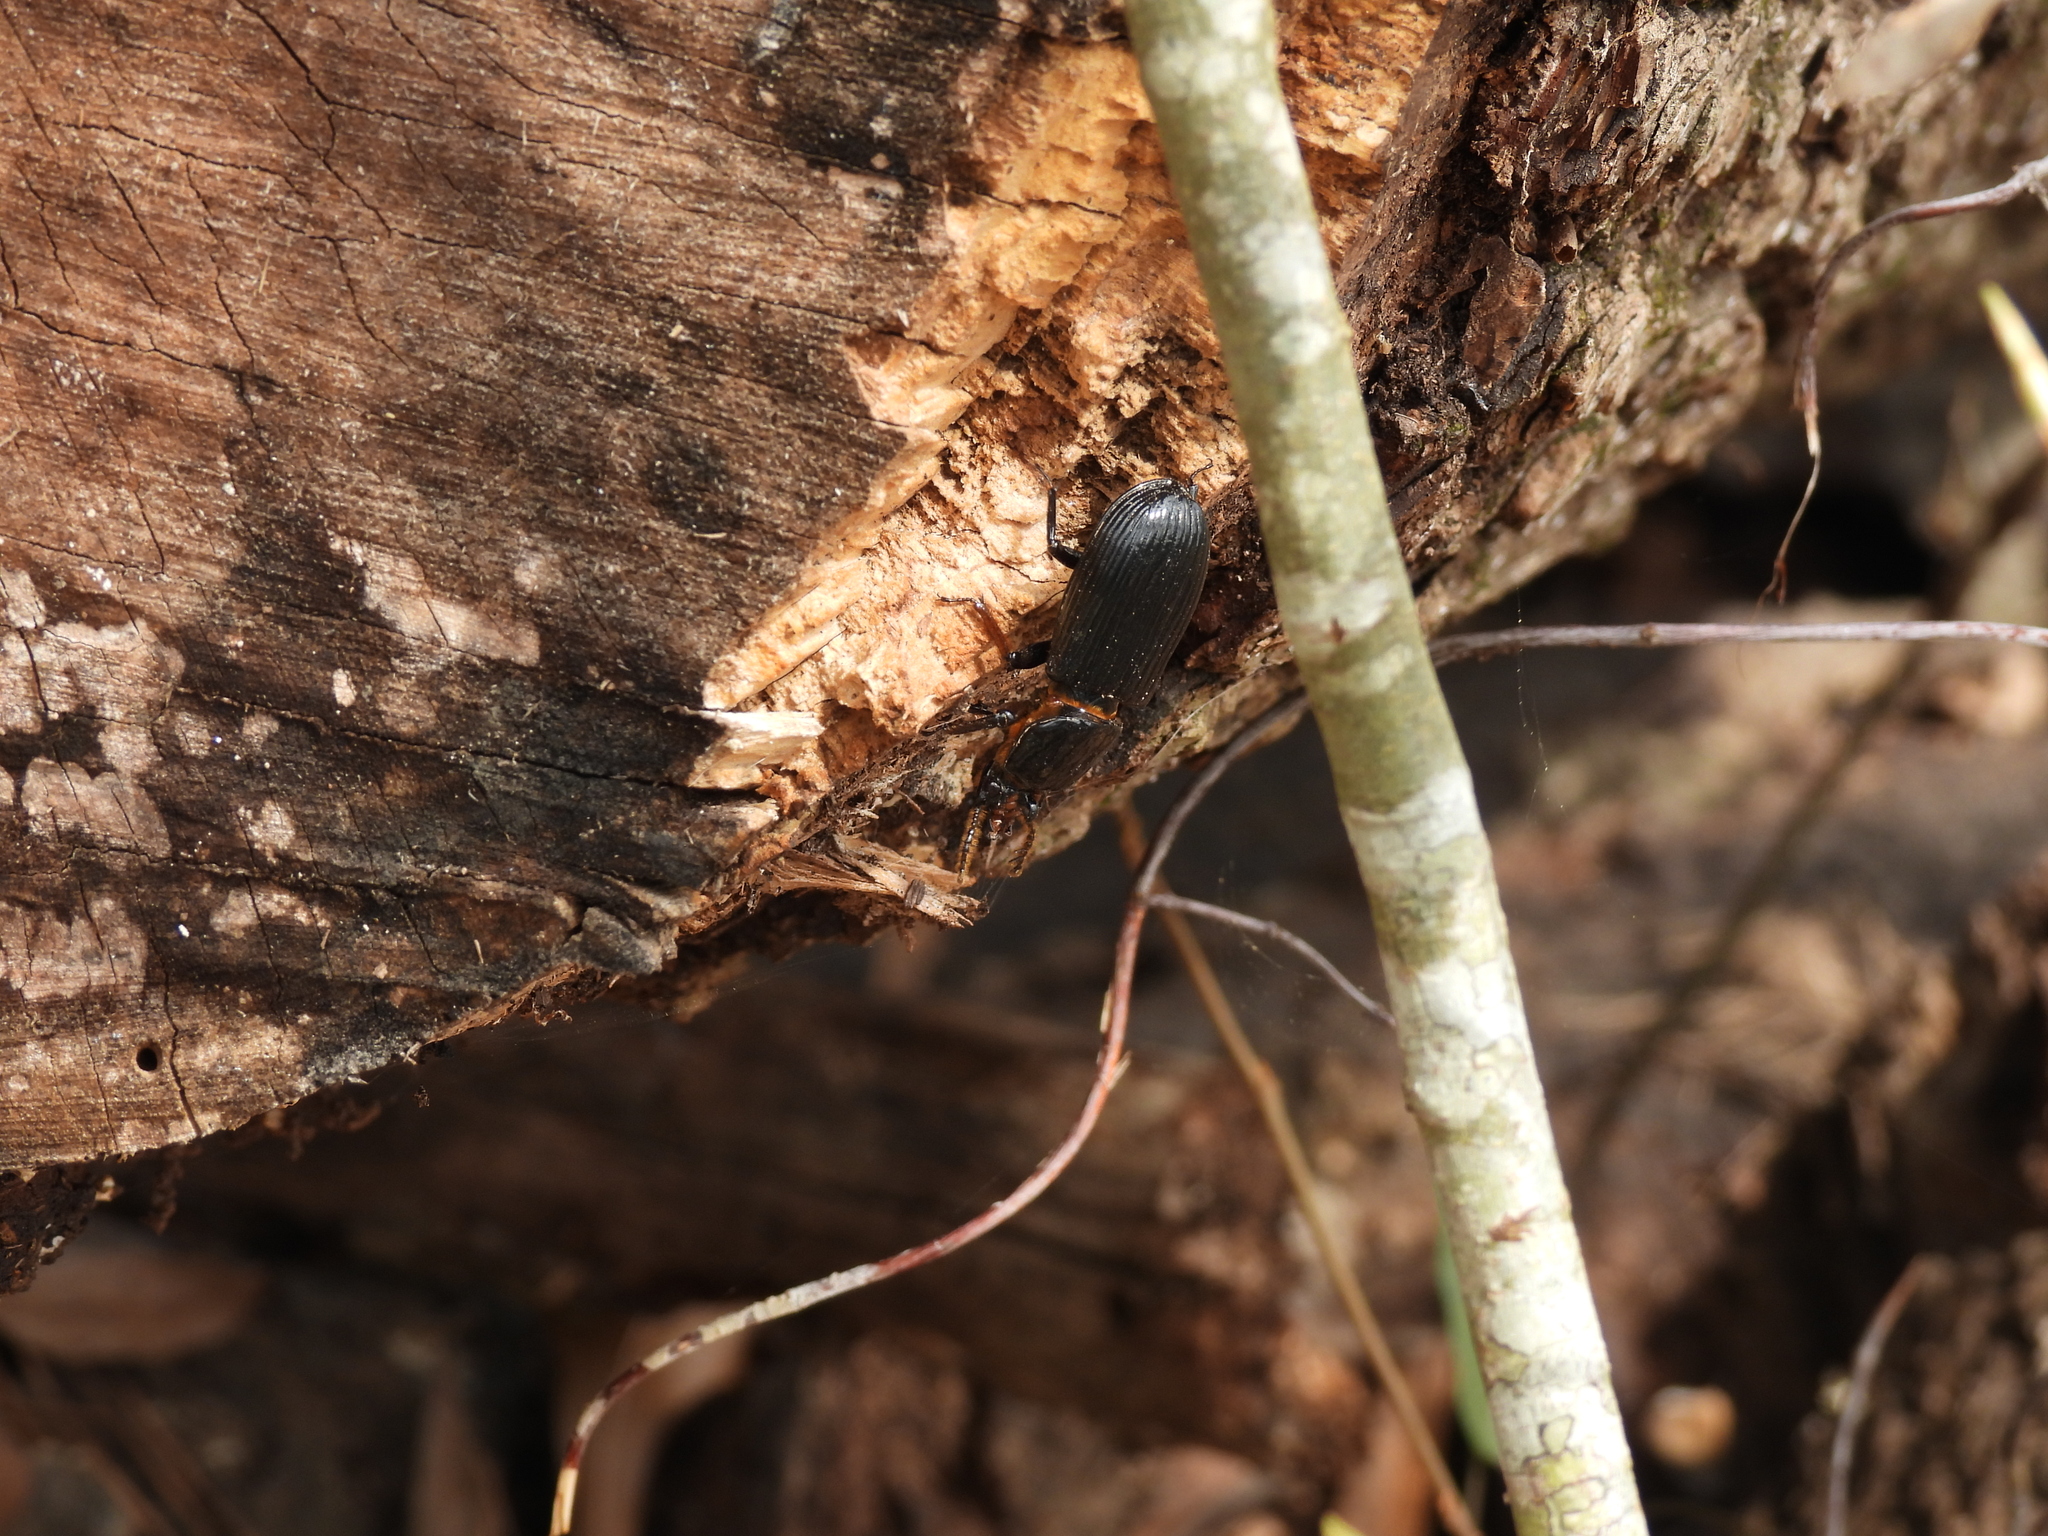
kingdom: Animalia
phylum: Arthropoda
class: Insecta
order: Coleoptera
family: Passalidae
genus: Odontotaenius
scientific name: Odontotaenius disjunctus
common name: Patent leather beetle
